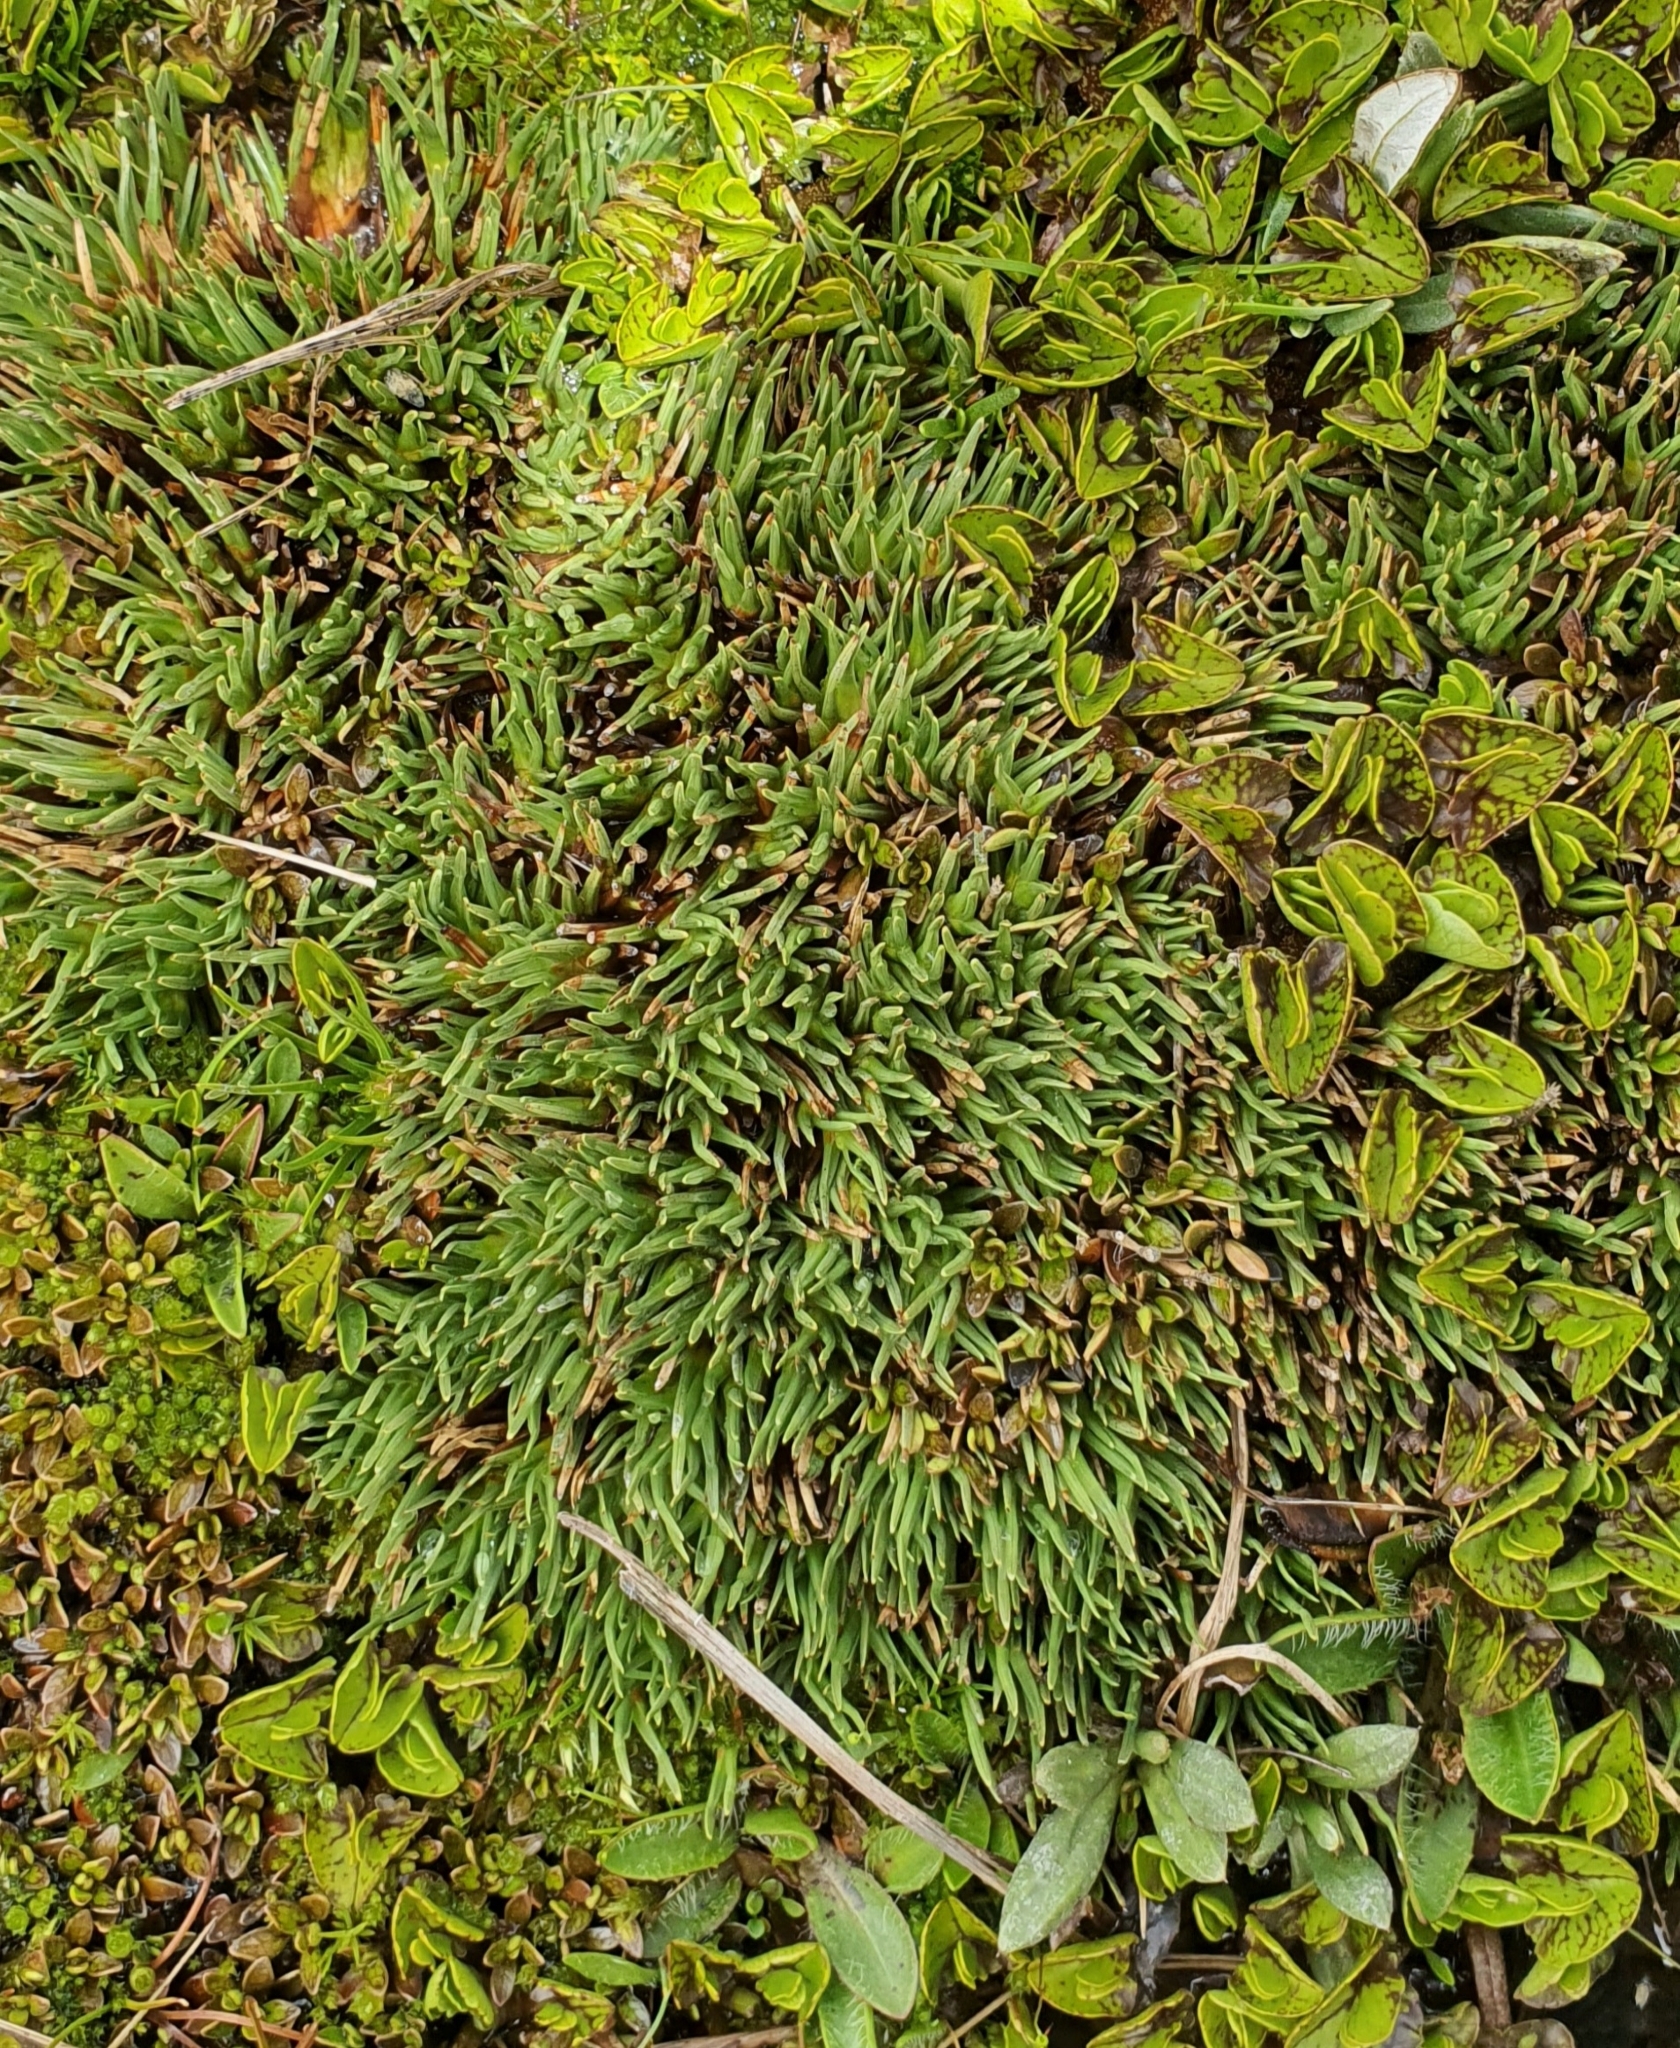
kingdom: Plantae
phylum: Tracheophyta
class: Liliopsida
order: Poales
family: Cyperaceae
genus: Oreobolus
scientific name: Oreobolus pectinatus
